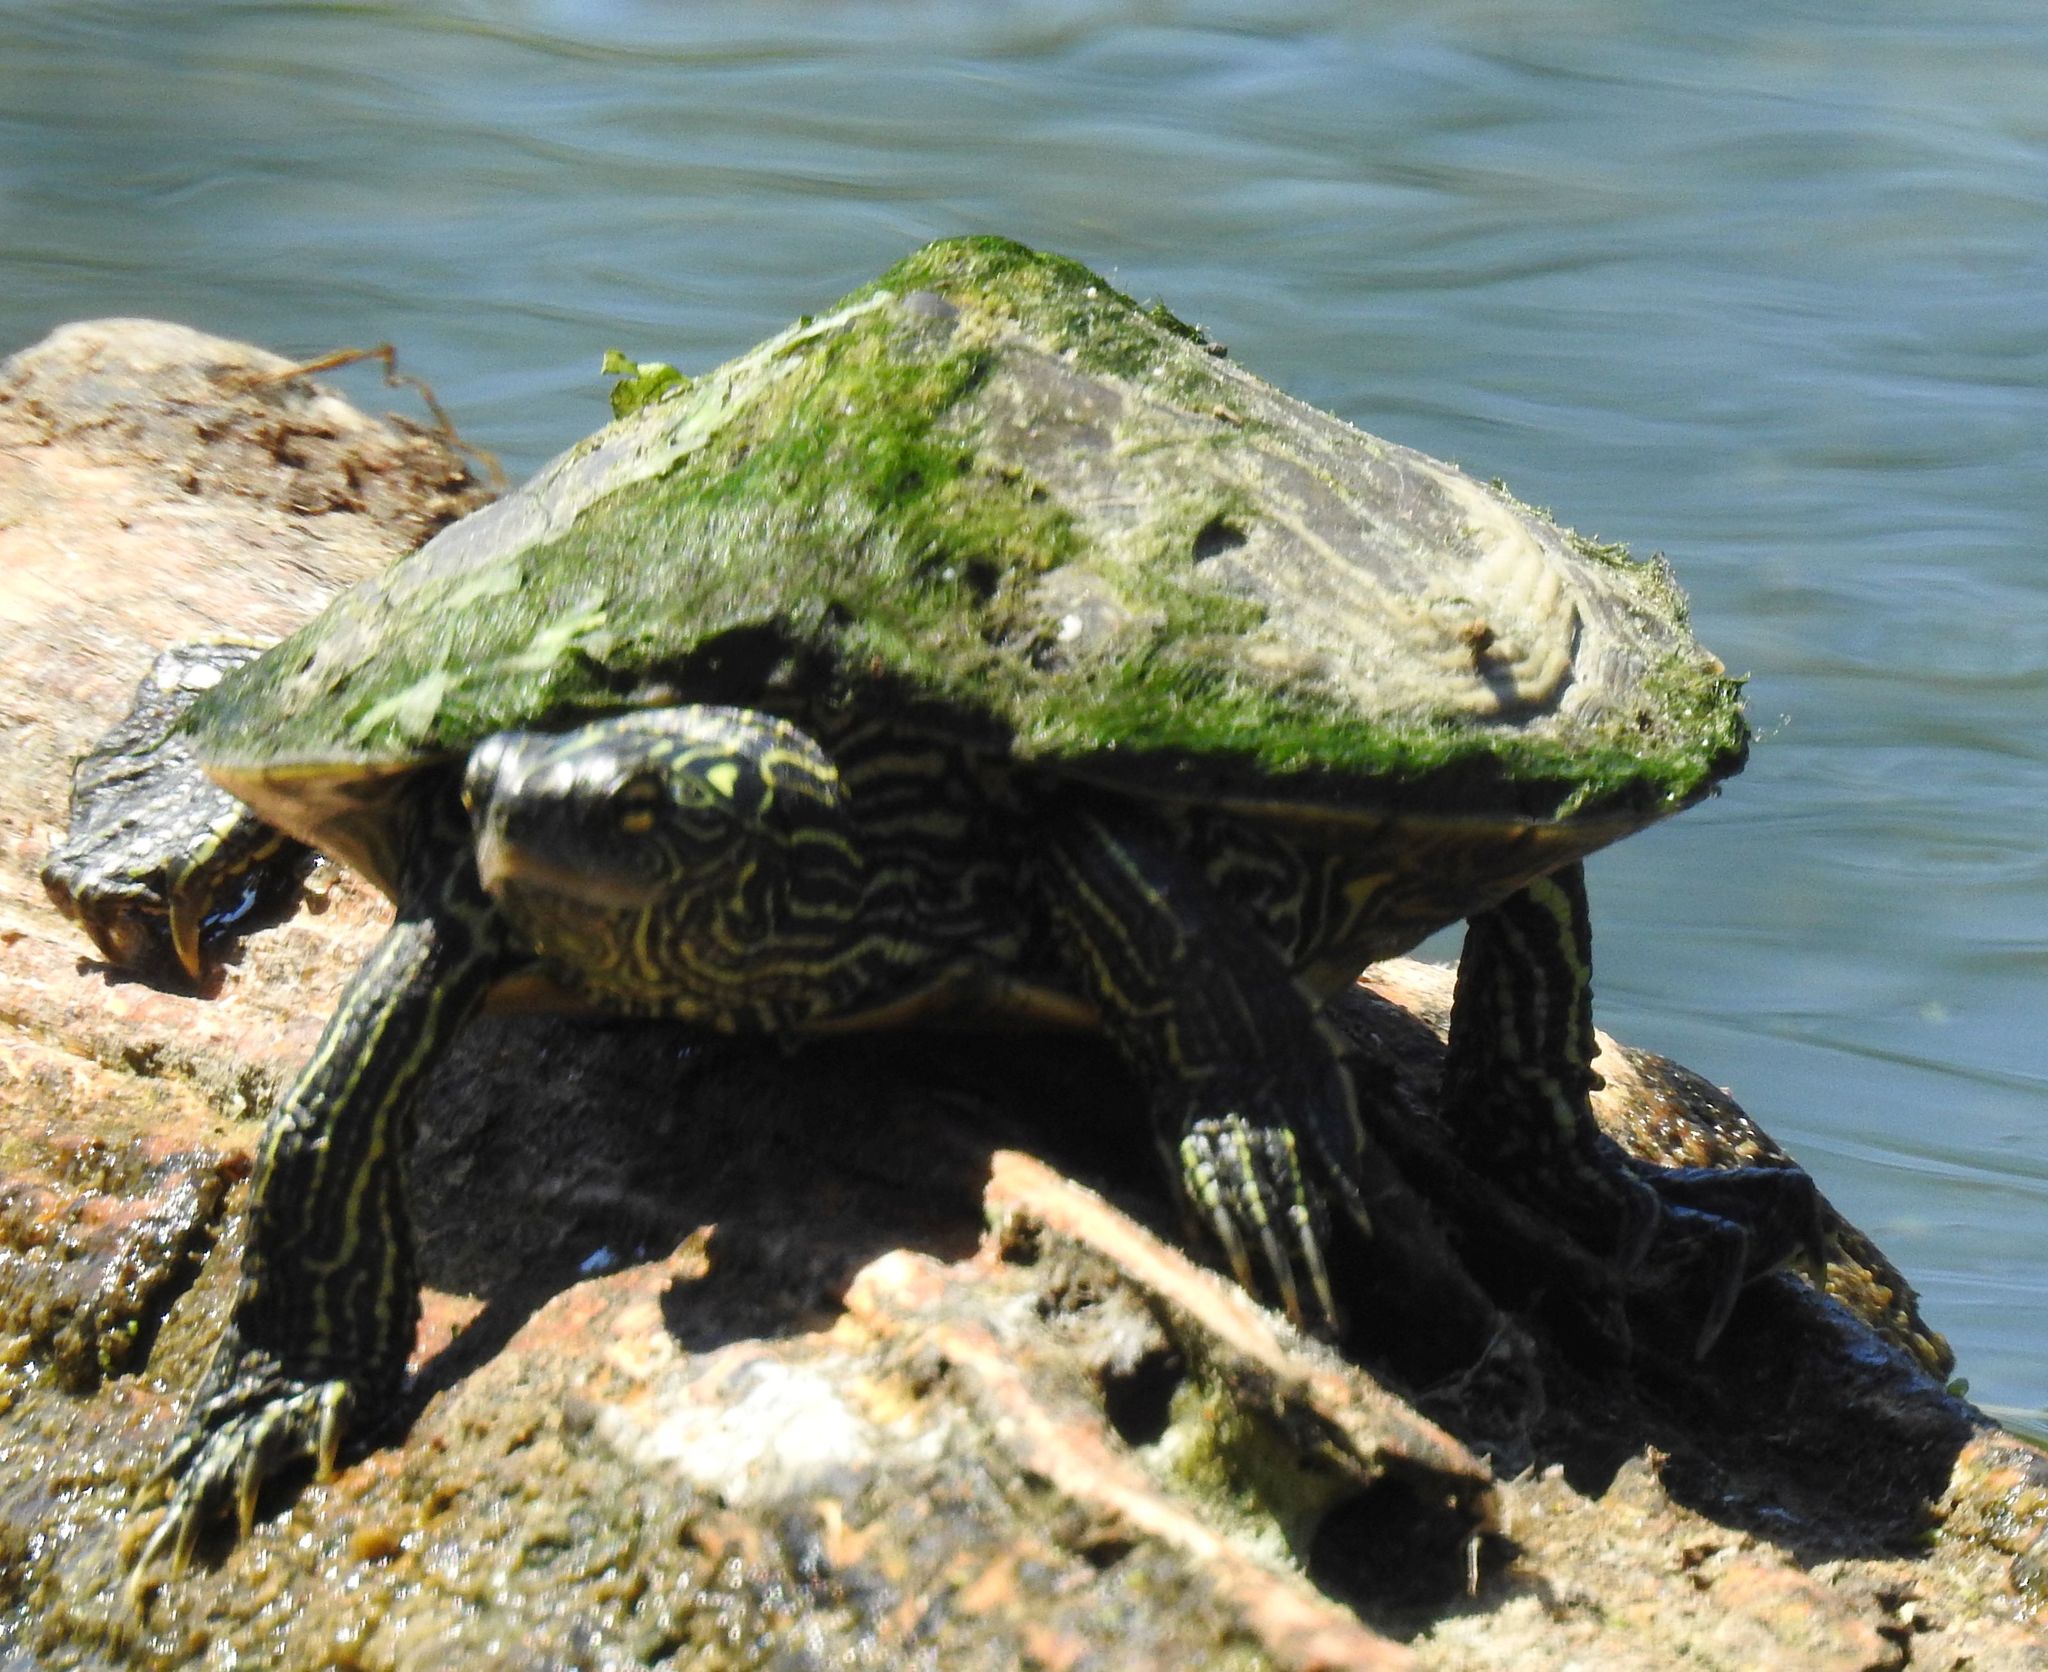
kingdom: Animalia
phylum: Chordata
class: Testudines
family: Emydidae
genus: Graptemys
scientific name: Graptemys geographica
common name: Common map turtle
